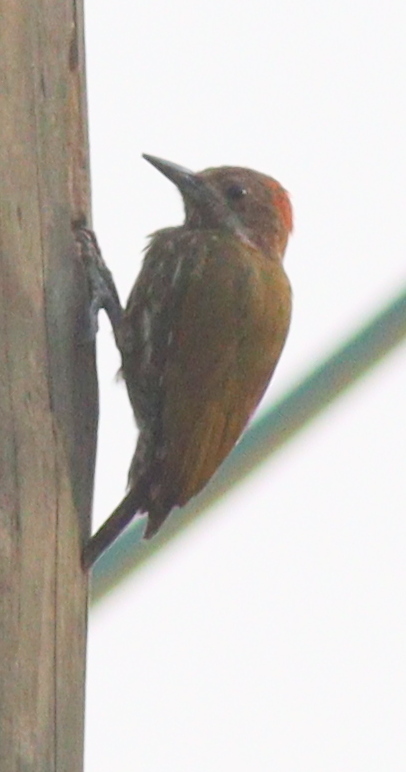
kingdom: Animalia
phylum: Chordata
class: Aves
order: Piciformes
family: Picidae
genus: Dendropicos
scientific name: Dendropicos lugubris
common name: Melancholy woodpecker
